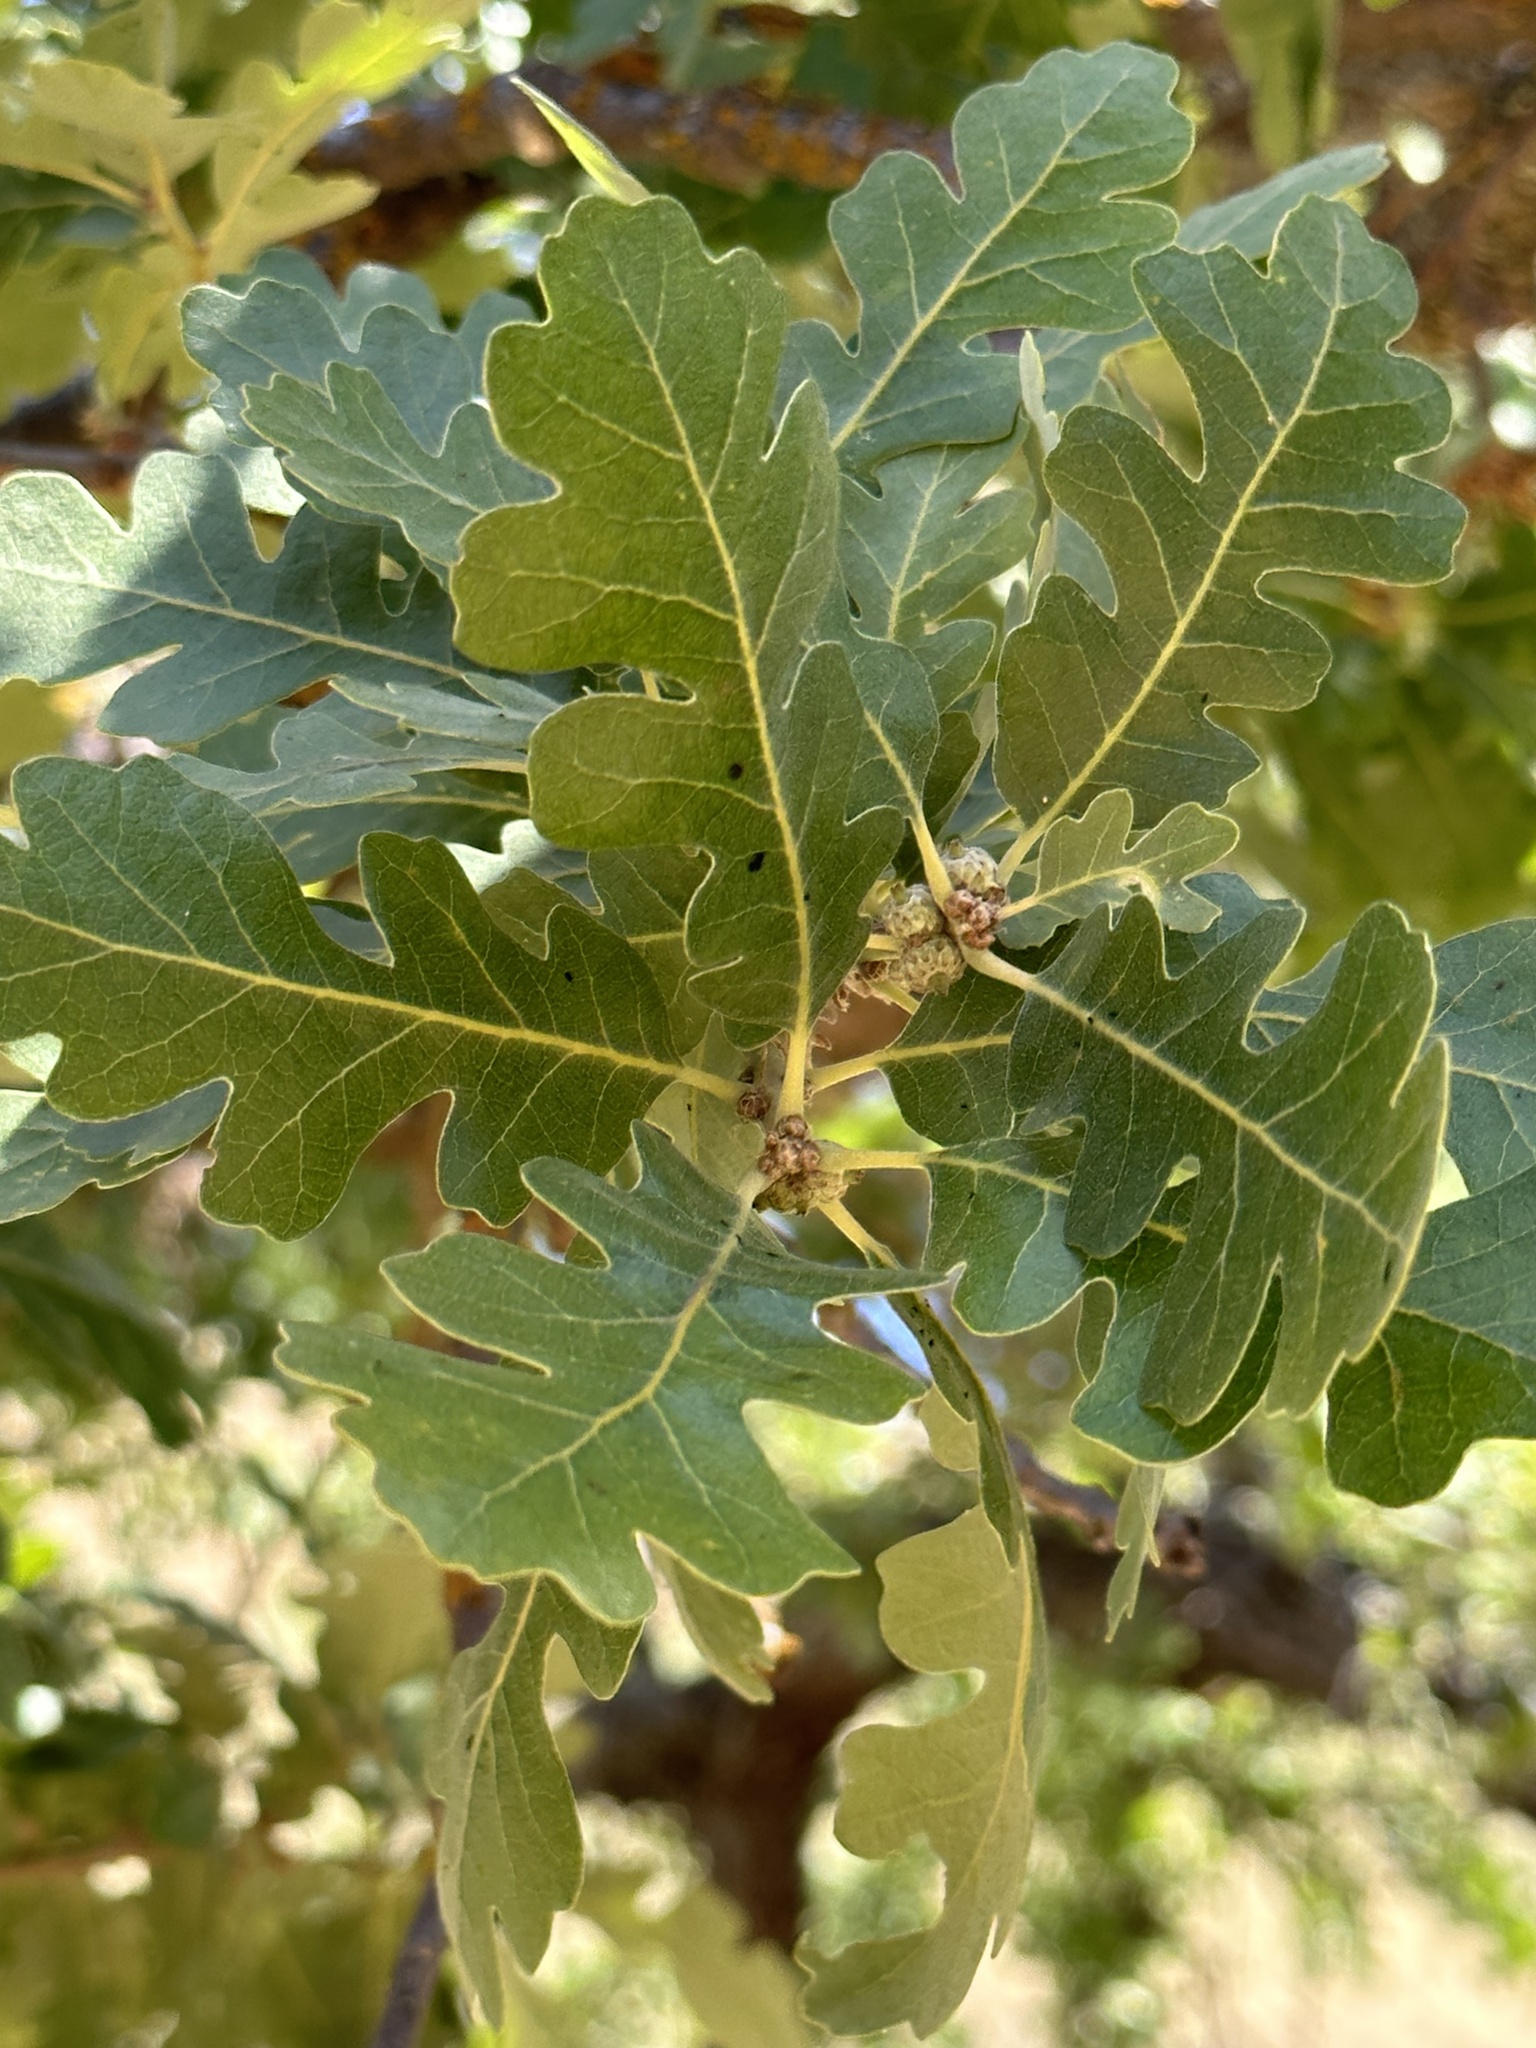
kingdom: Plantae
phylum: Tracheophyta
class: Magnoliopsida
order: Fagales
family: Fagaceae
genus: Quercus
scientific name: Quercus lobata
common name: Valley oak
